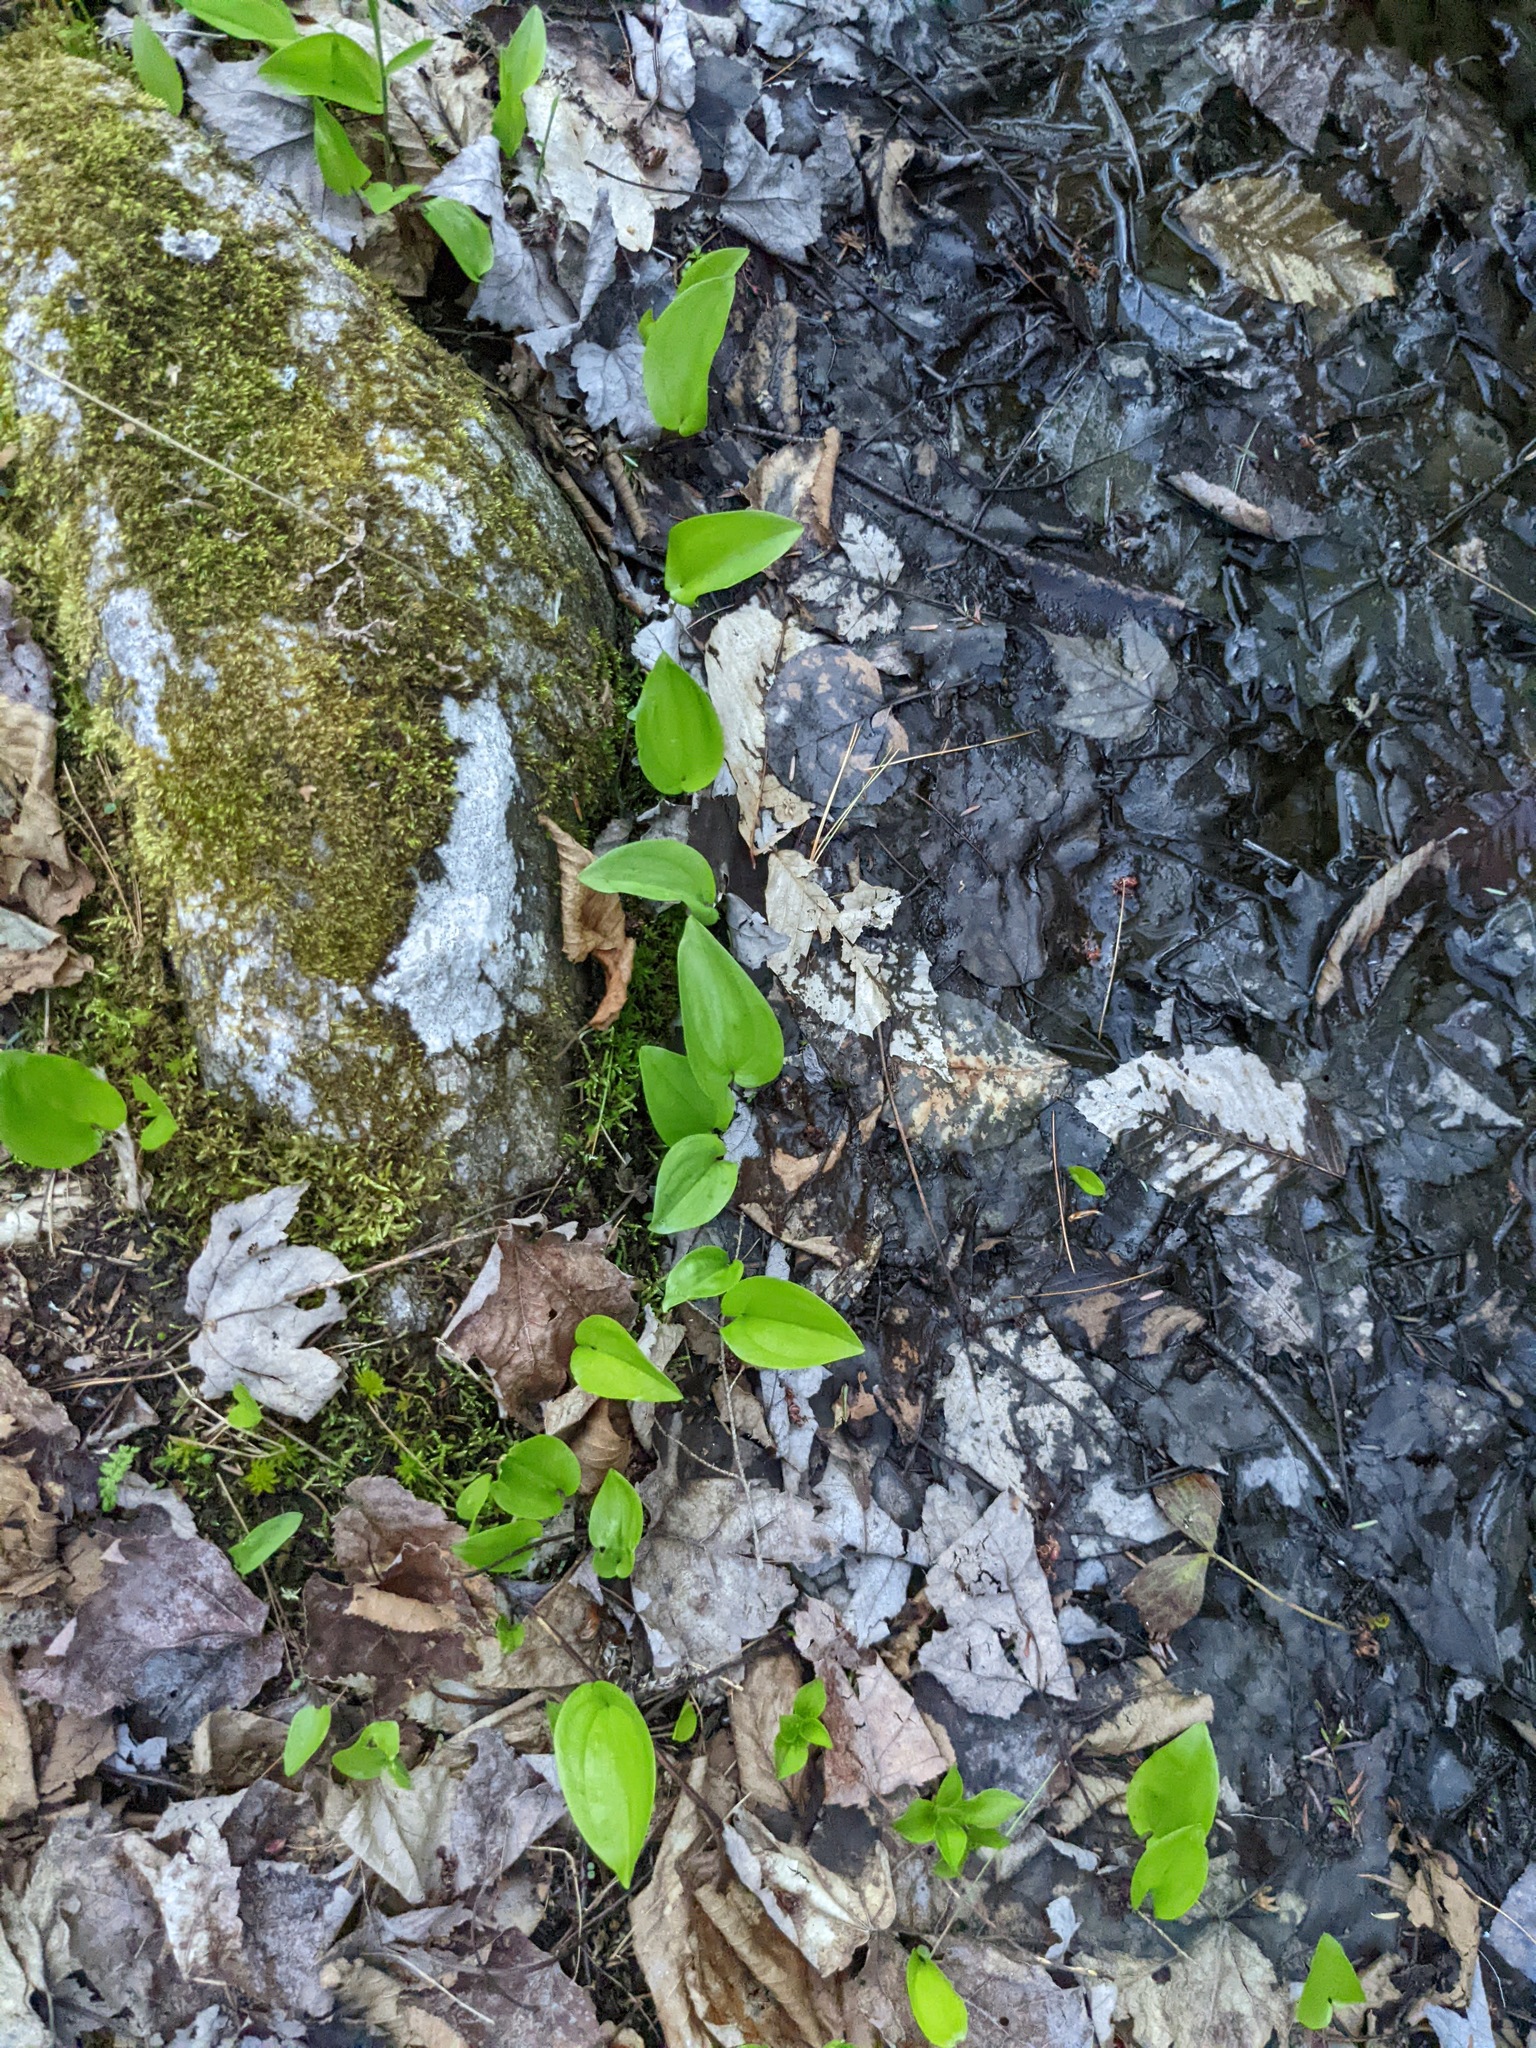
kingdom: Plantae
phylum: Tracheophyta
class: Liliopsida
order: Asparagales
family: Asparagaceae
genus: Maianthemum
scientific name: Maianthemum canadense
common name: False lily-of-the-valley
